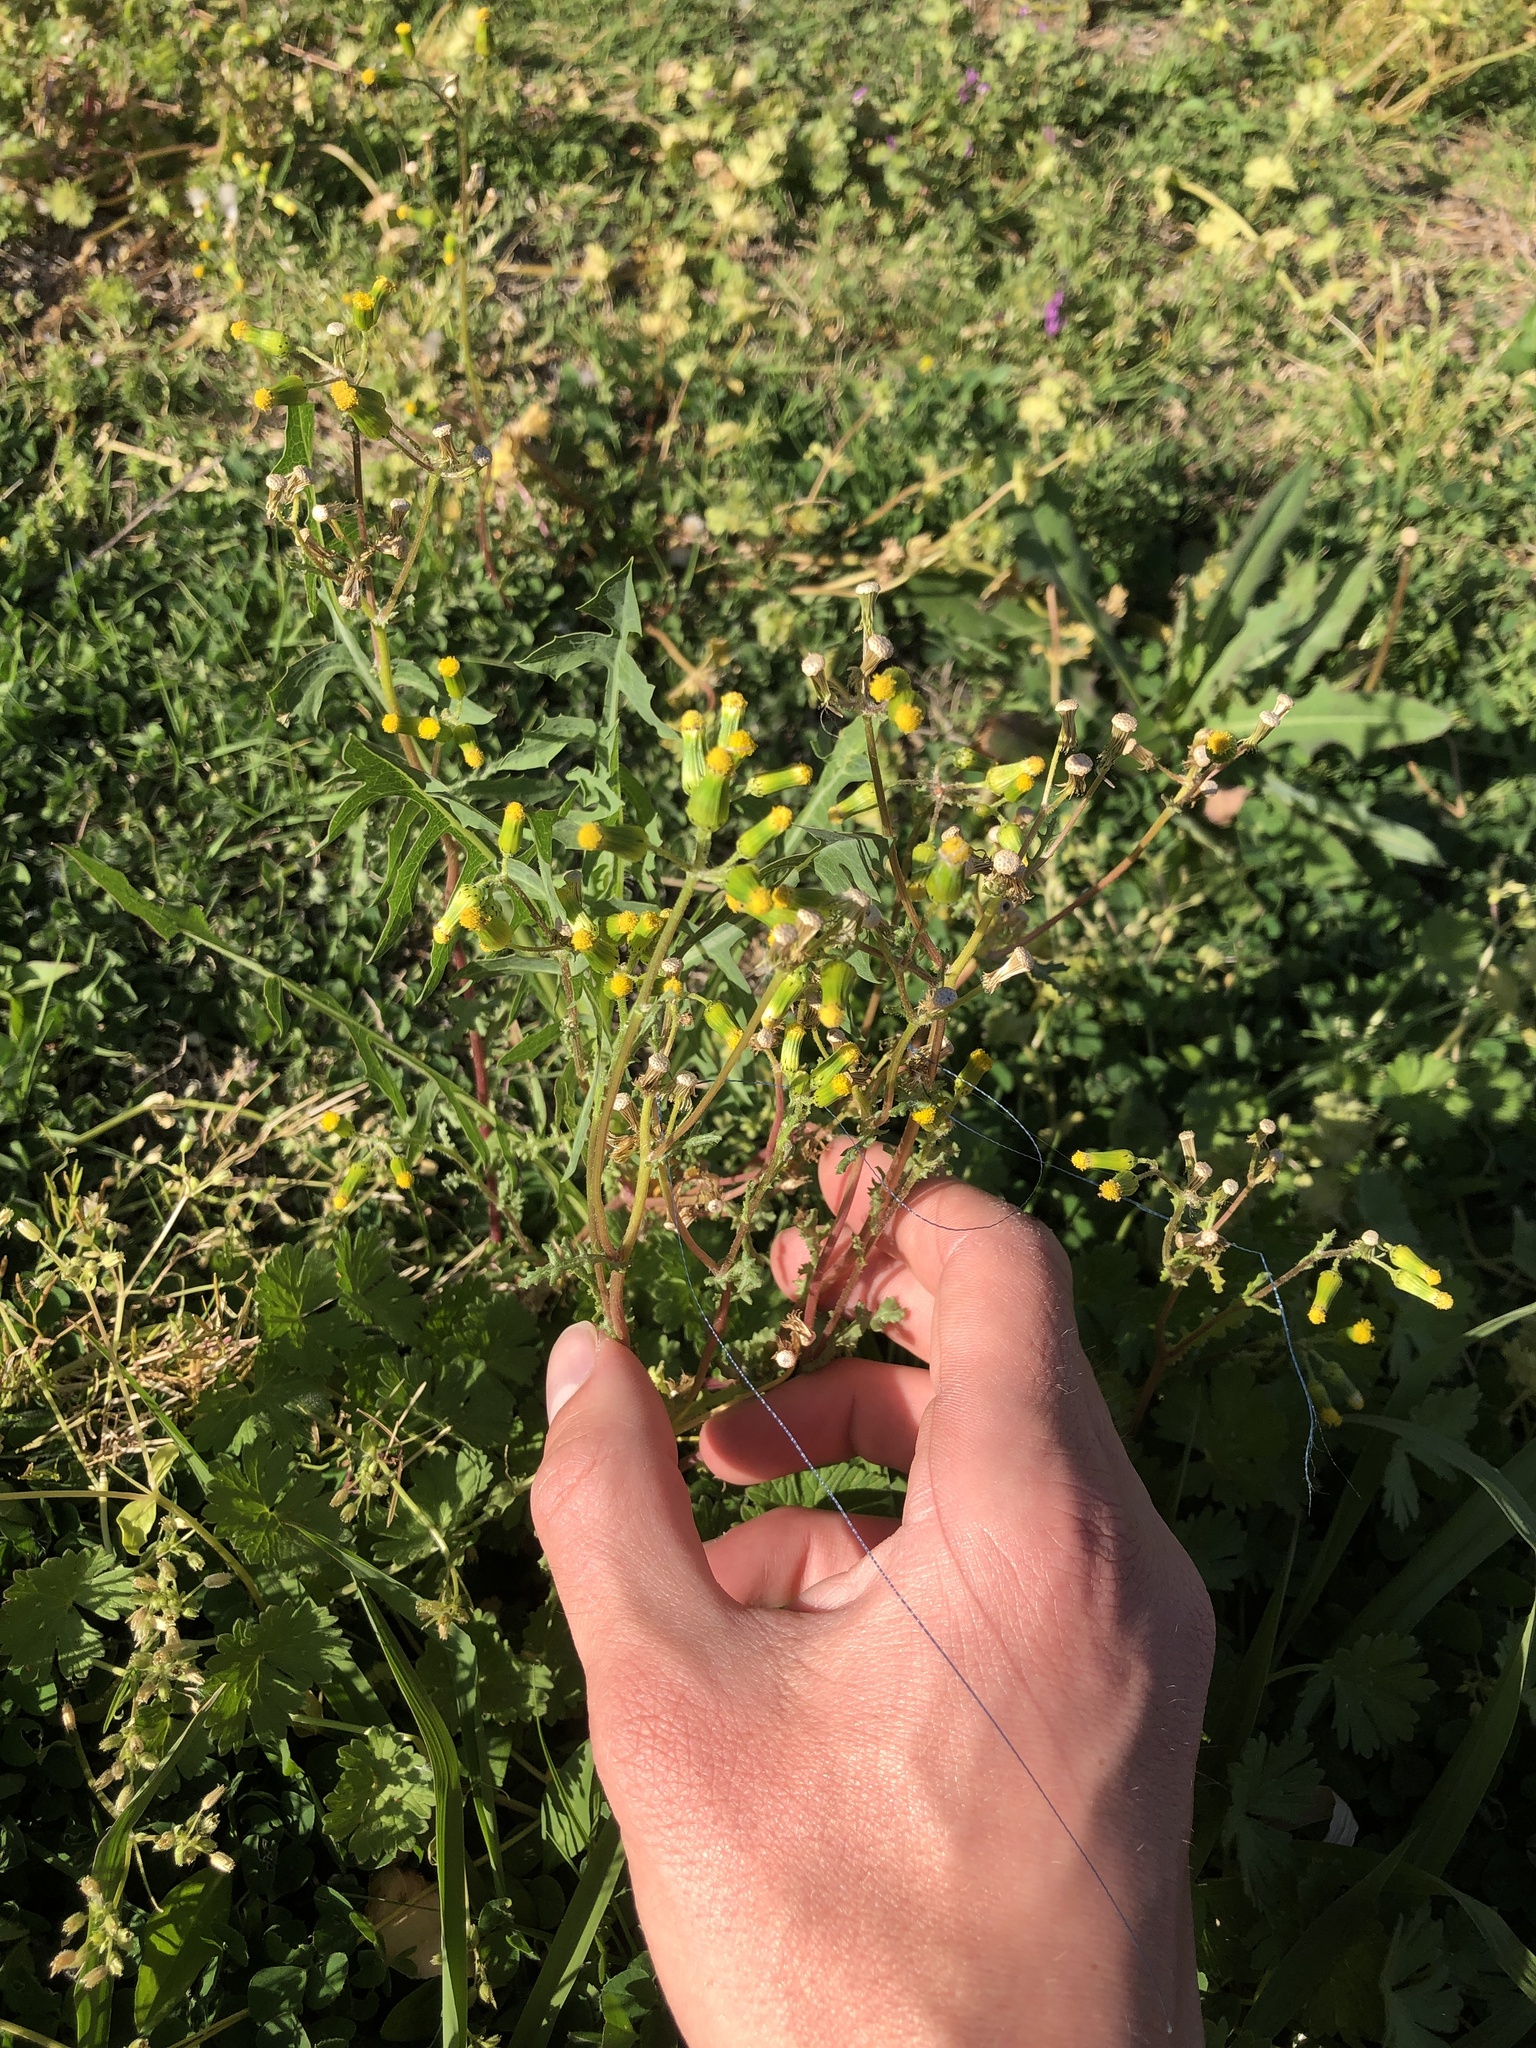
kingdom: Plantae
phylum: Tracheophyta
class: Magnoliopsida
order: Asterales
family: Asteraceae
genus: Senecio
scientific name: Senecio vulgaris
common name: Old-man-in-the-spring
